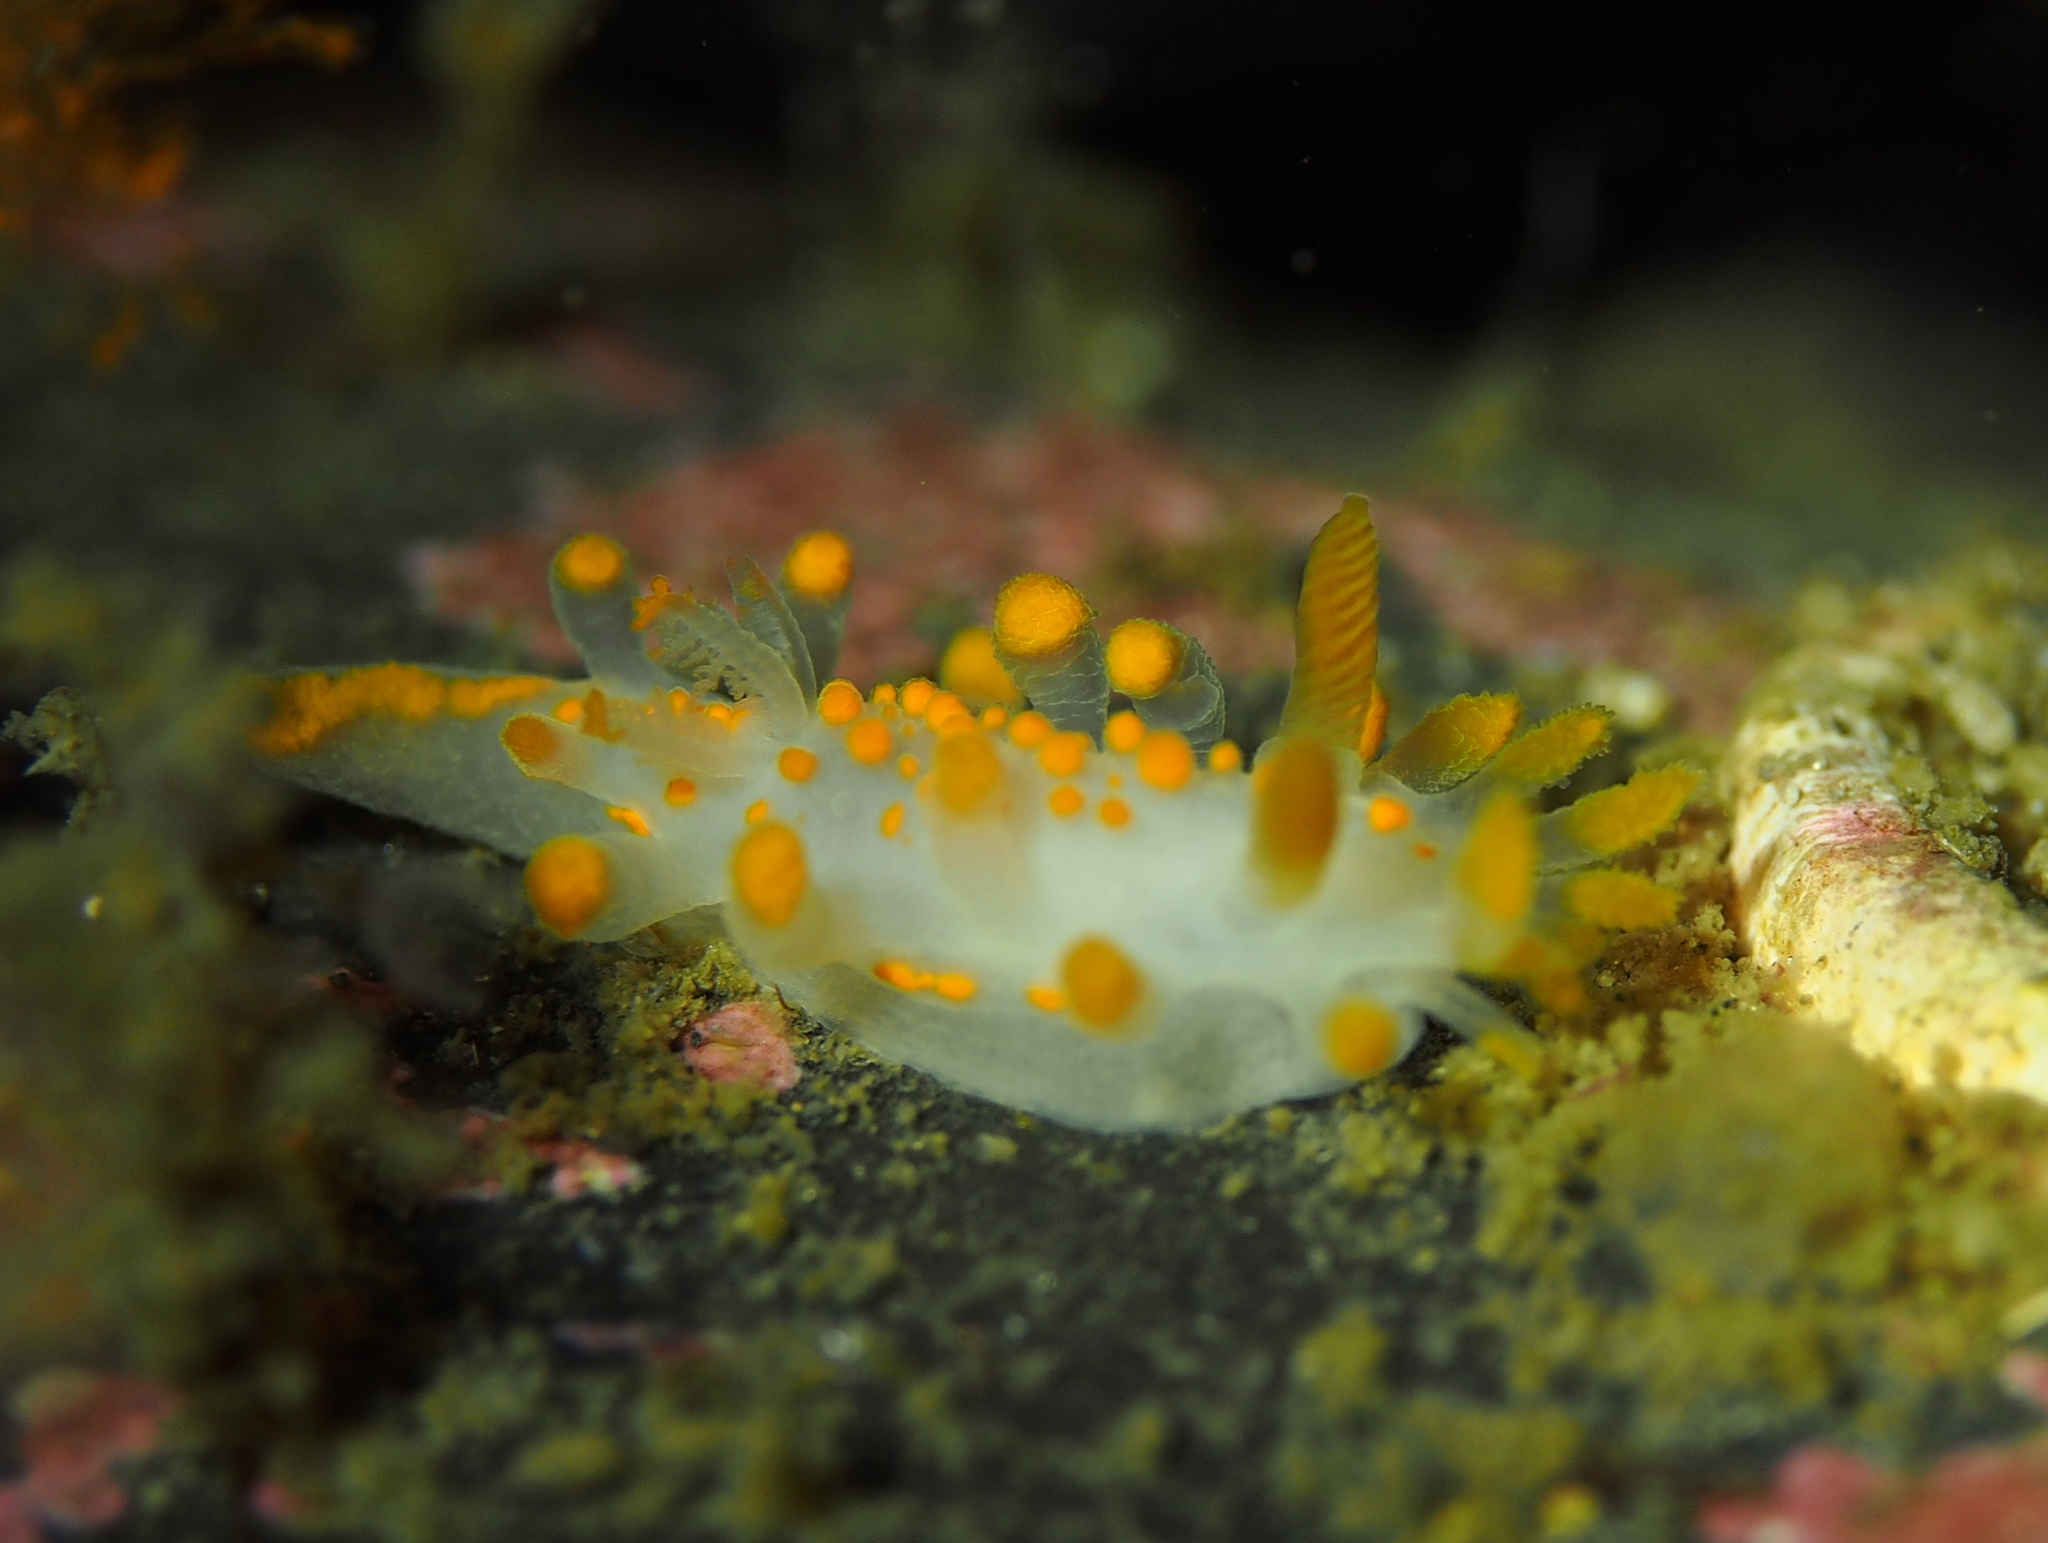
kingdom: Animalia
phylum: Mollusca
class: Gastropoda
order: Nudibranchia
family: Polyceridae
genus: Limacia
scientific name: Limacia clavigera
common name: Orange-clubbed sea slug
